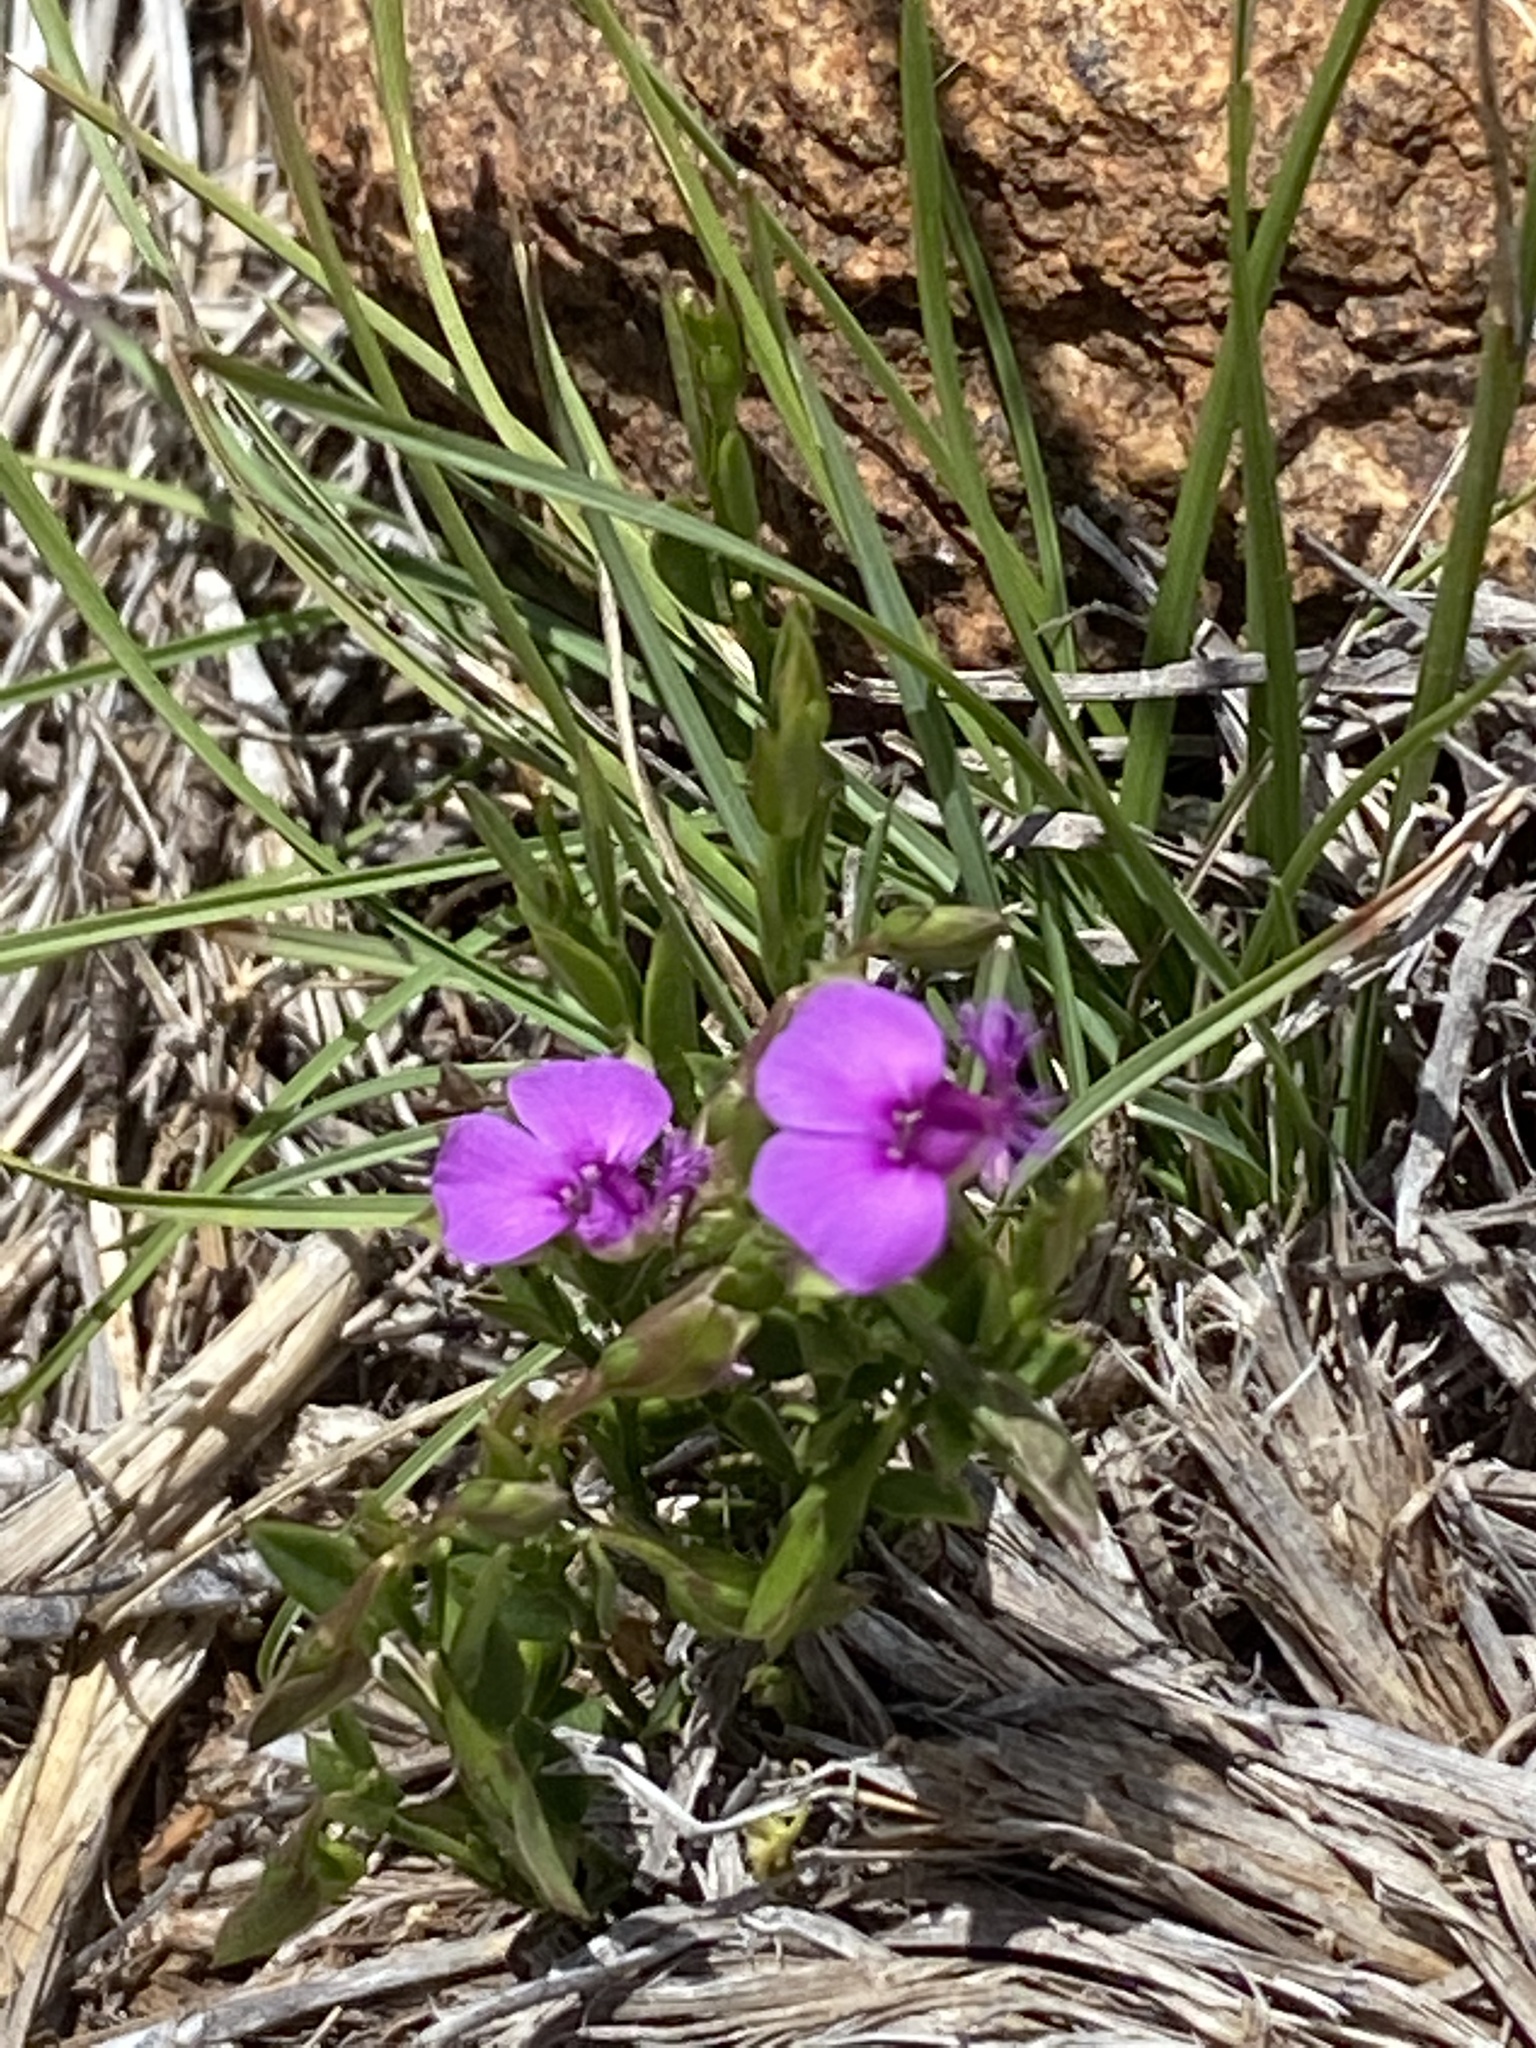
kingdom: Plantae
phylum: Tracheophyta
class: Magnoliopsida
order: Fabales
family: Polygalaceae
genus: Polygala
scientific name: Polygala amatymbica
